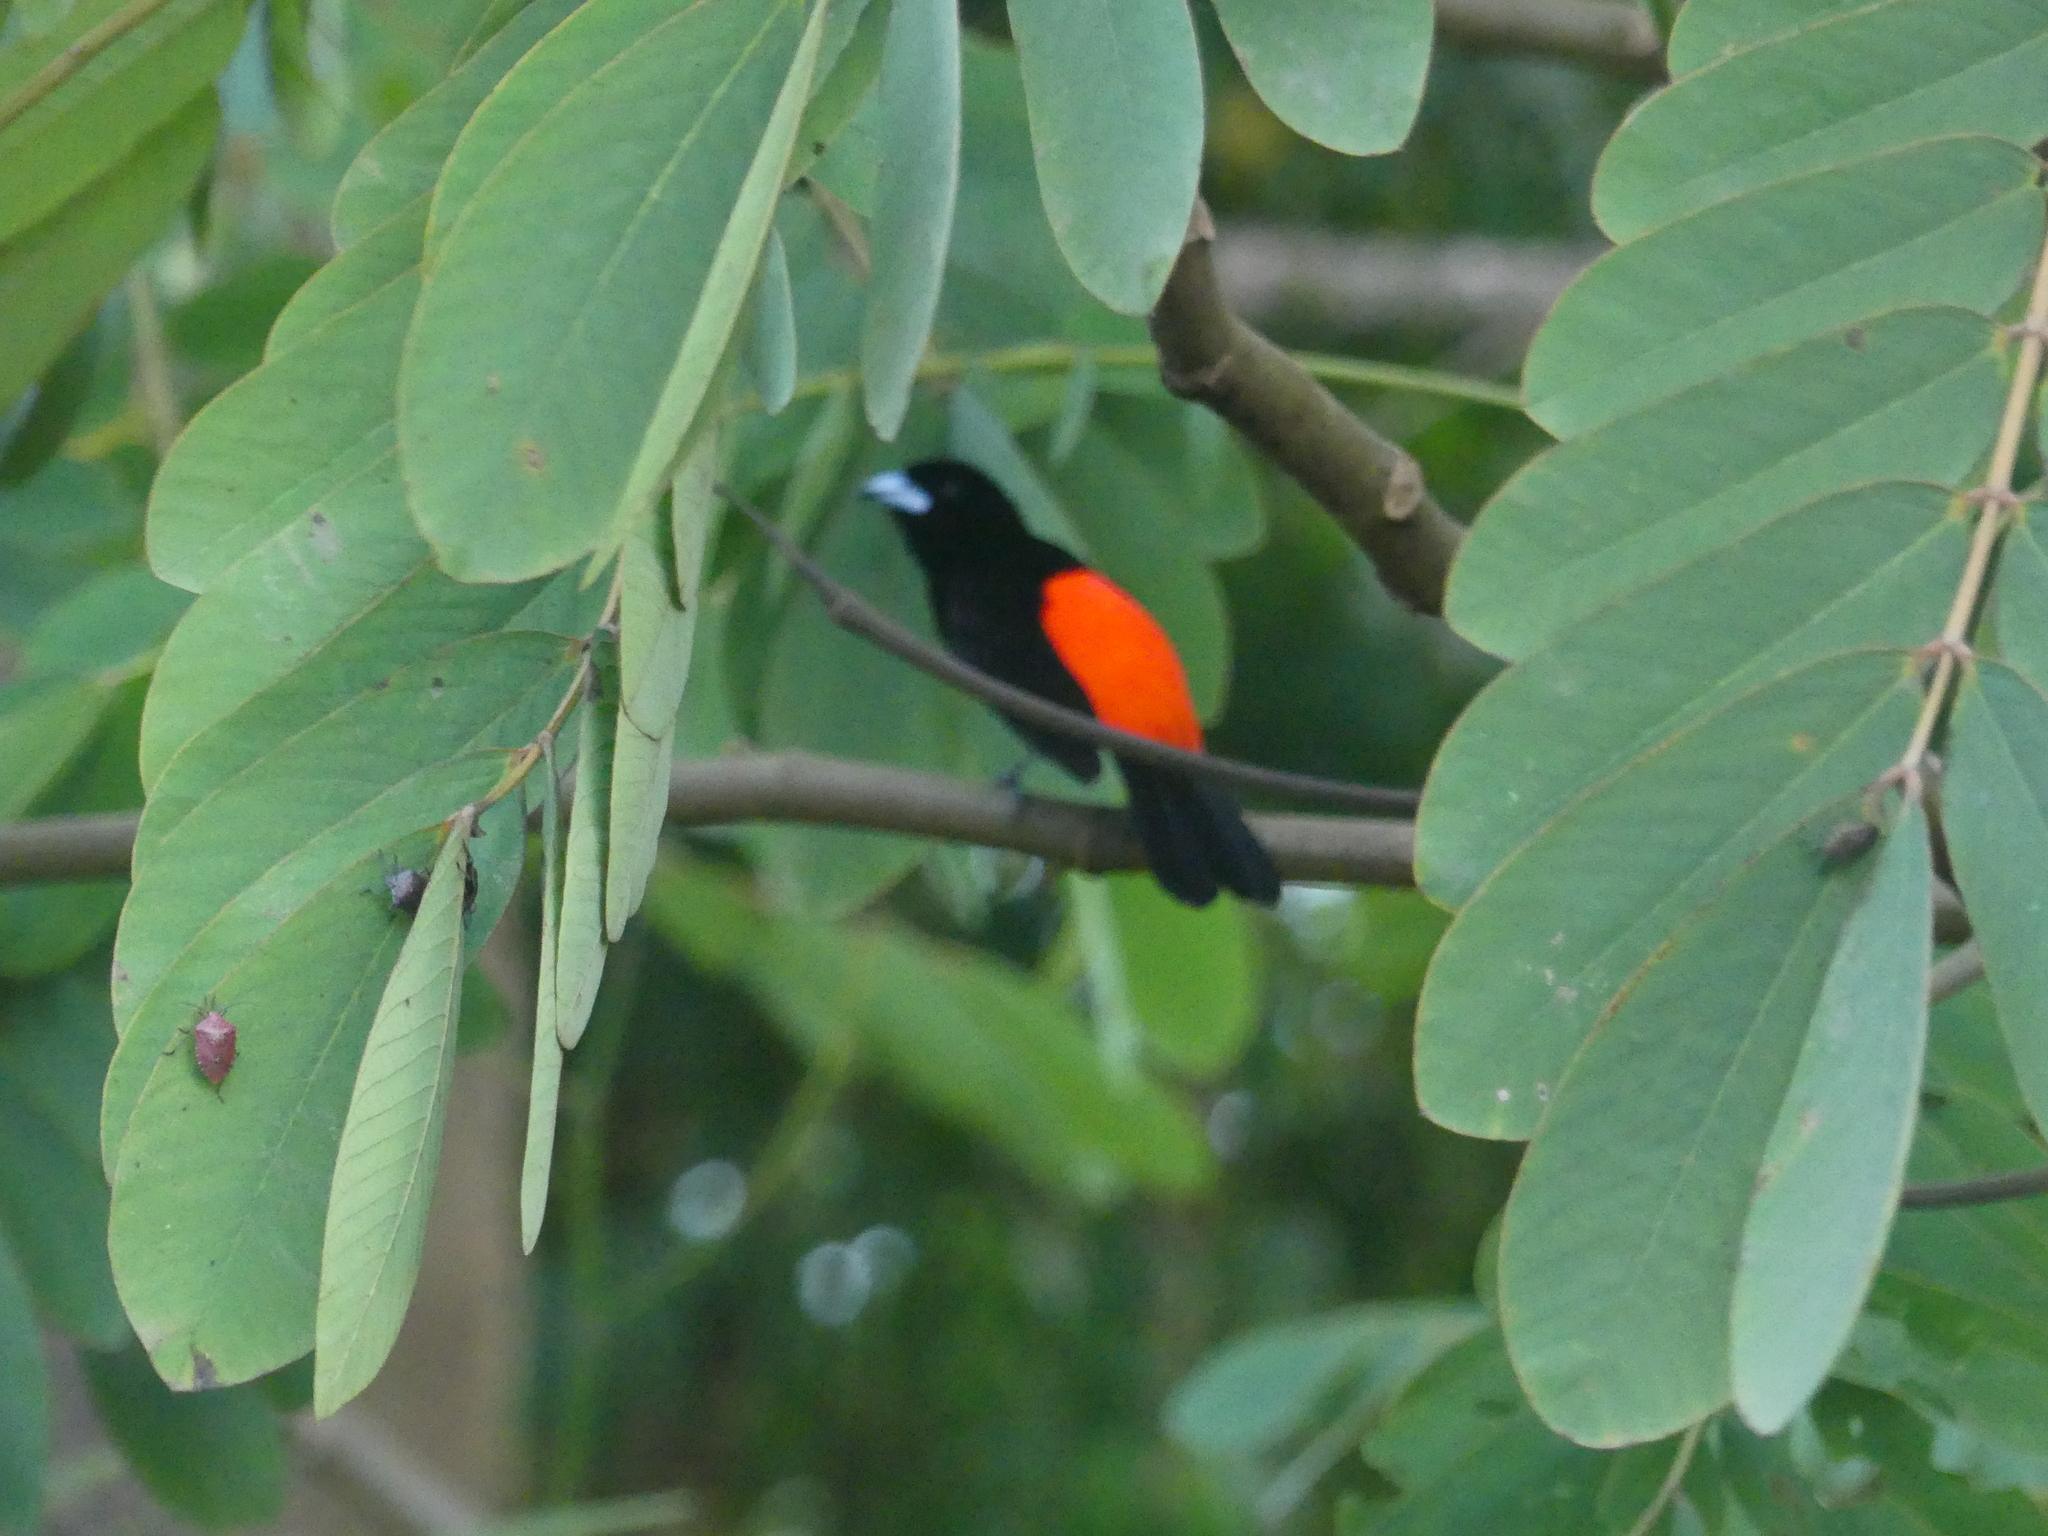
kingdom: Animalia
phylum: Chordata
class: Aves
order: Passeriformes
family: Thraupidae
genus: Ramphocelus
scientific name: Ramphocelus passerinii
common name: Passerini's tanager
